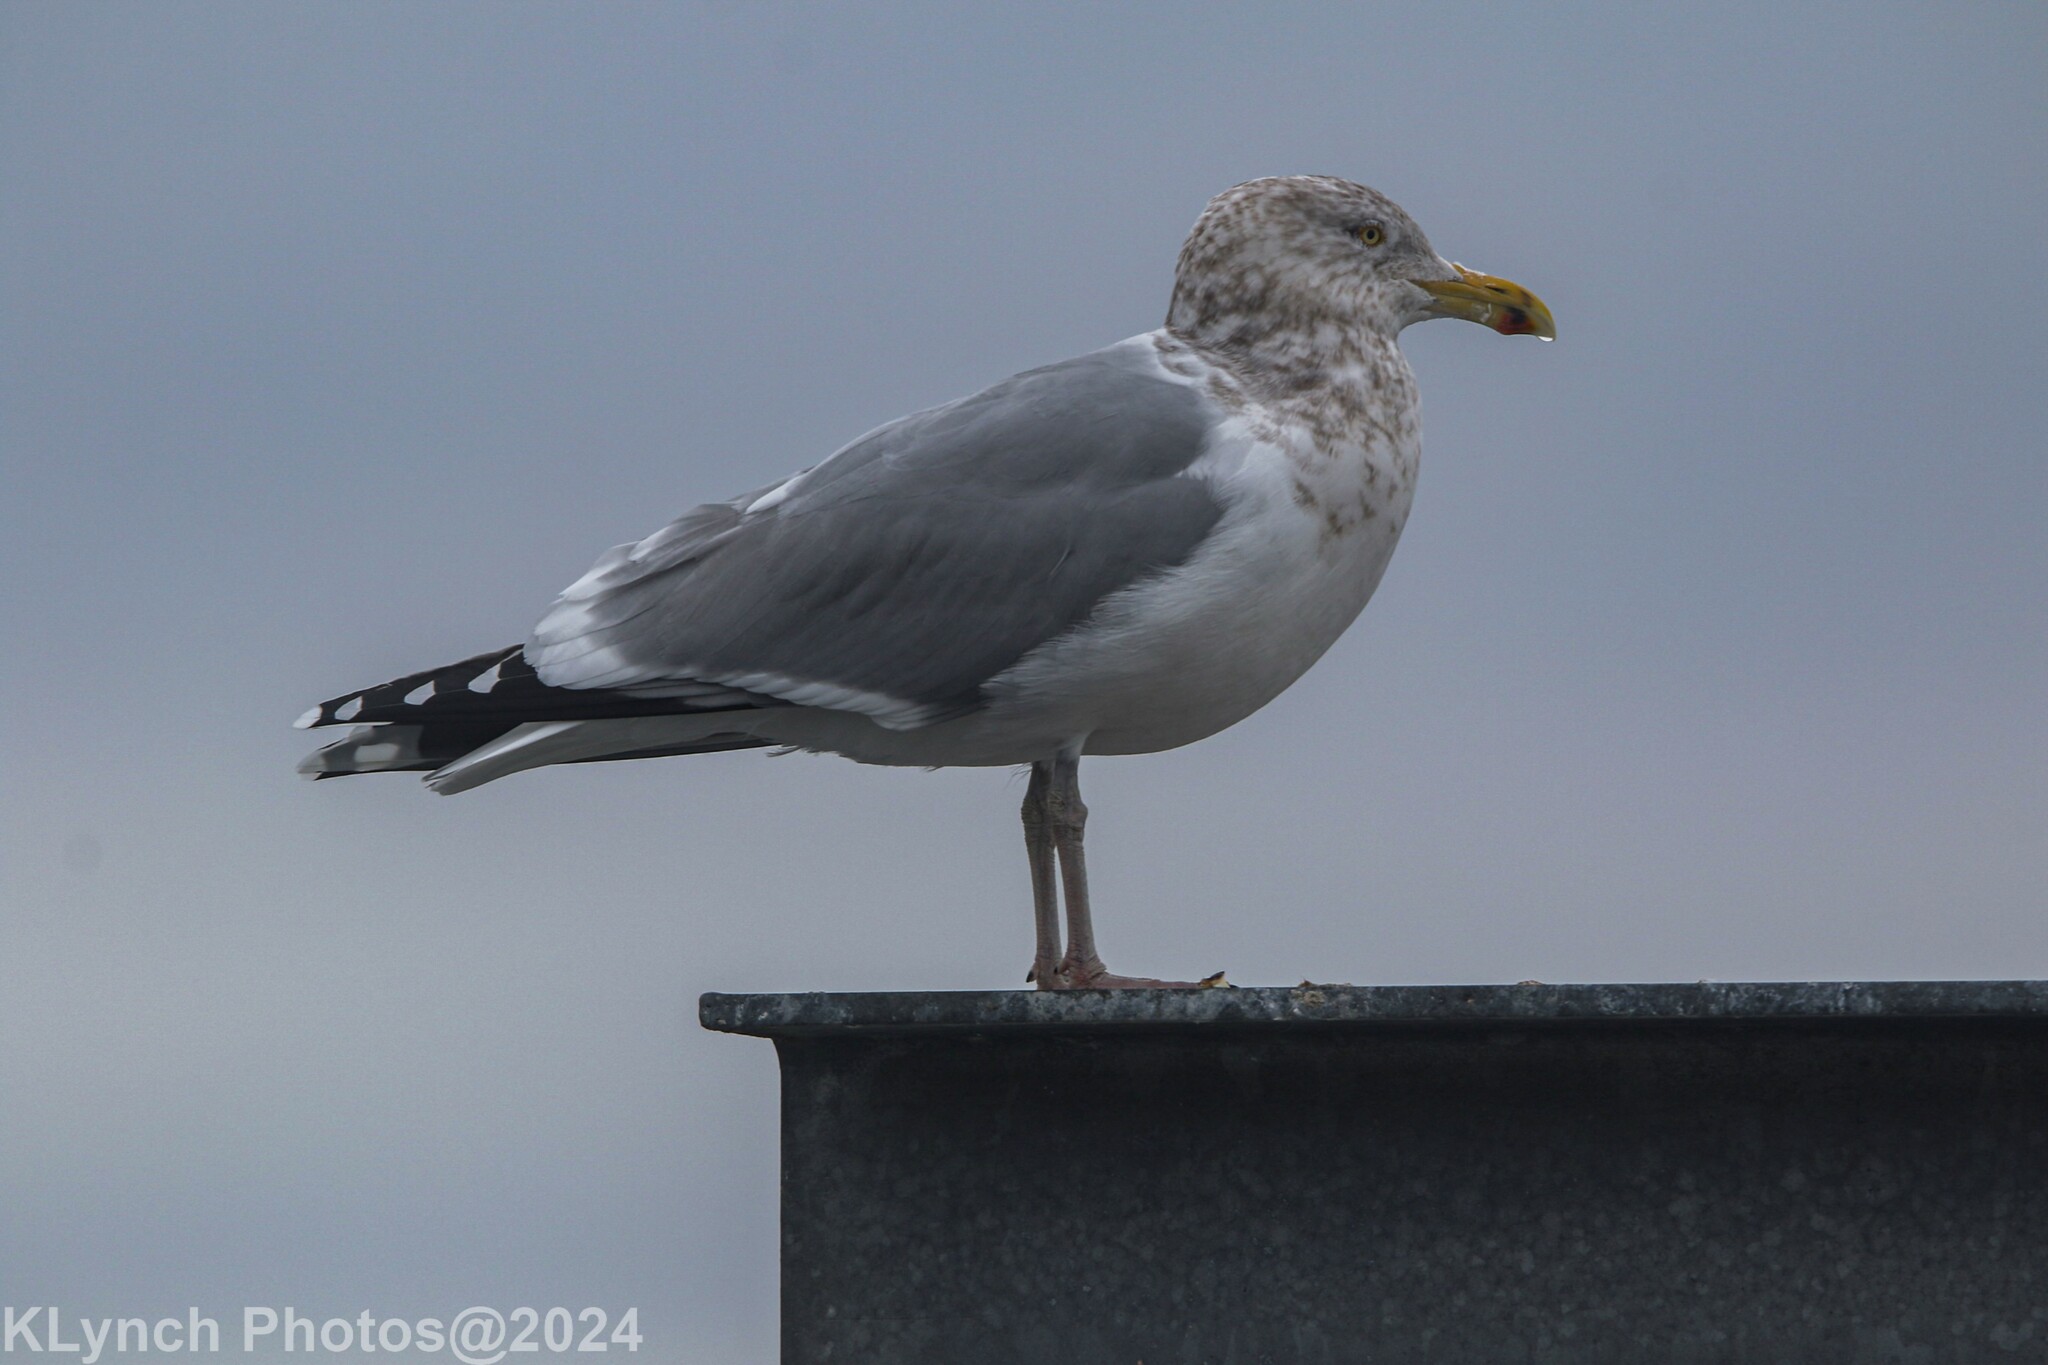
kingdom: Animalia
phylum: Chordata
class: Aves
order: Charadriiformes
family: Laridae
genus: Larus
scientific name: Larus argentatus
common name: Herring gull
